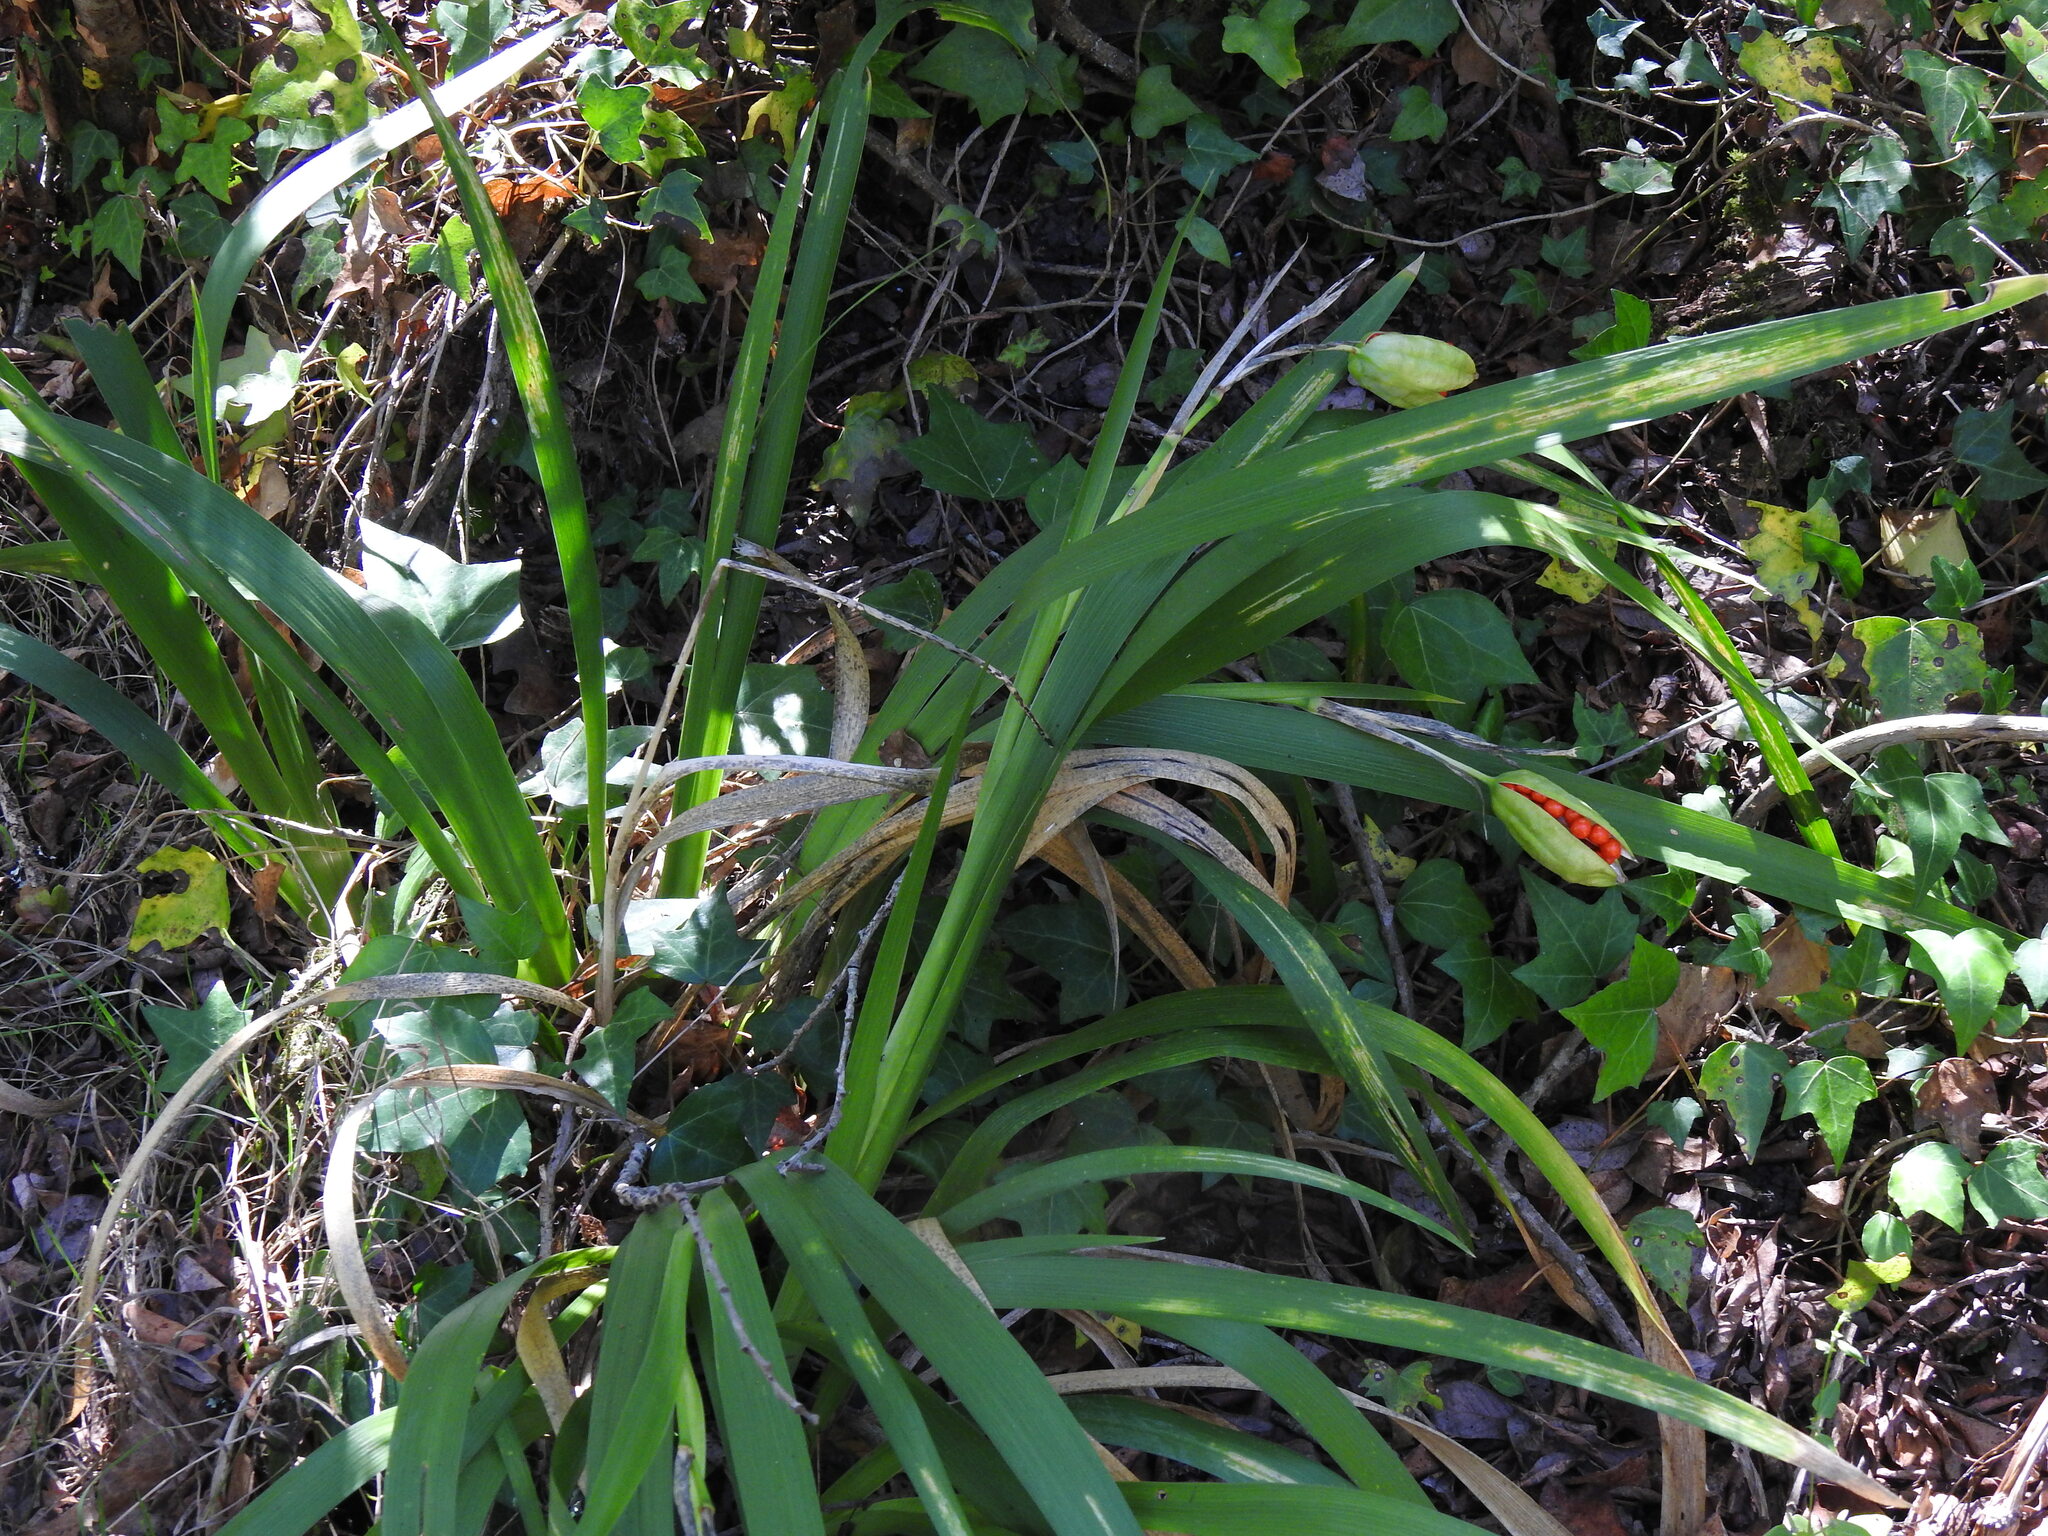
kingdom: Plantae
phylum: Tracheophyta
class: Liliopsida
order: Asparagales
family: Iridaceae
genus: Iris
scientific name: Iris foetidissima
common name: Stinking iris
